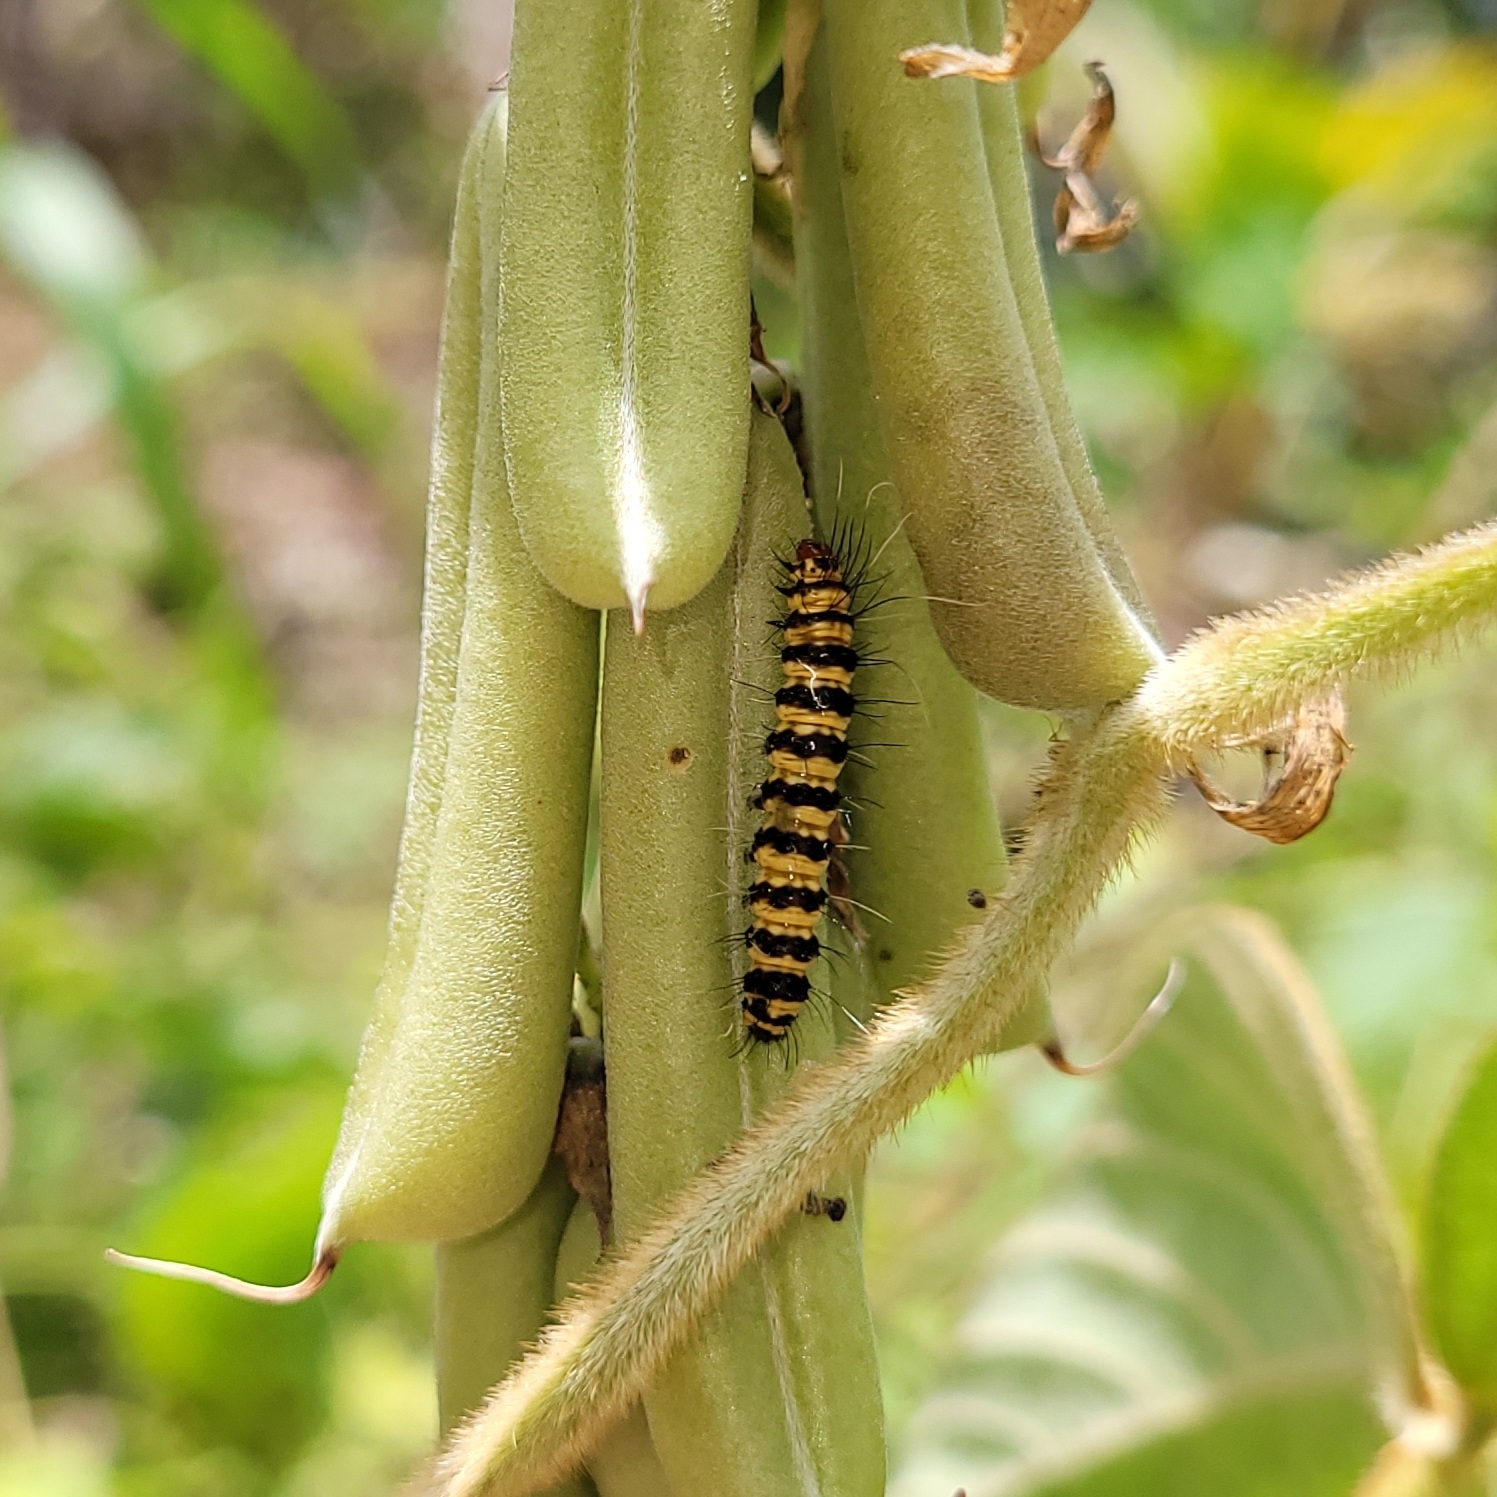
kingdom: Animalia
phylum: Arthropoda
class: Insecta
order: Lepidoptera
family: Erebidae
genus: Utetheisa
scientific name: Utetheisa ornatrix
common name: Beautiful utetheisa
